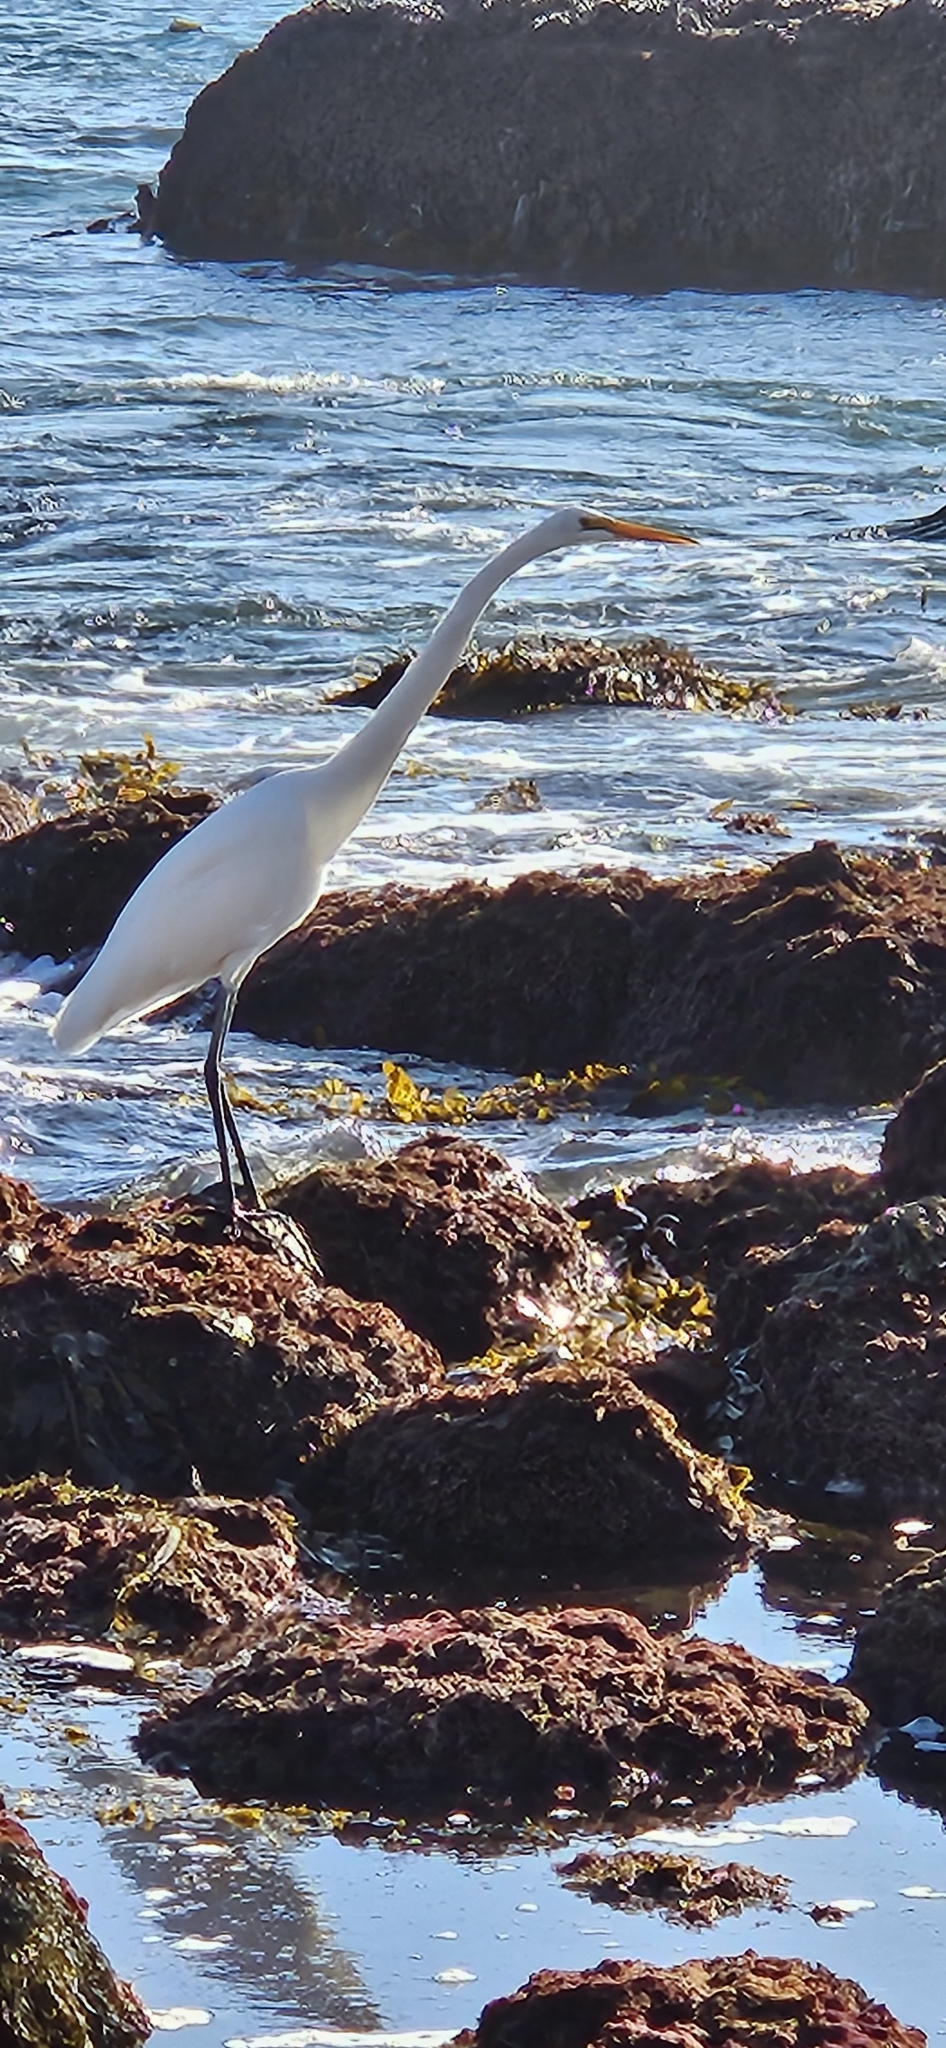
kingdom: Animalia
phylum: Chordata
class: Aves
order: Pelecaniformes
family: Ardeidae
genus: Ardea
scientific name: Ardea alba
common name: Great egret
